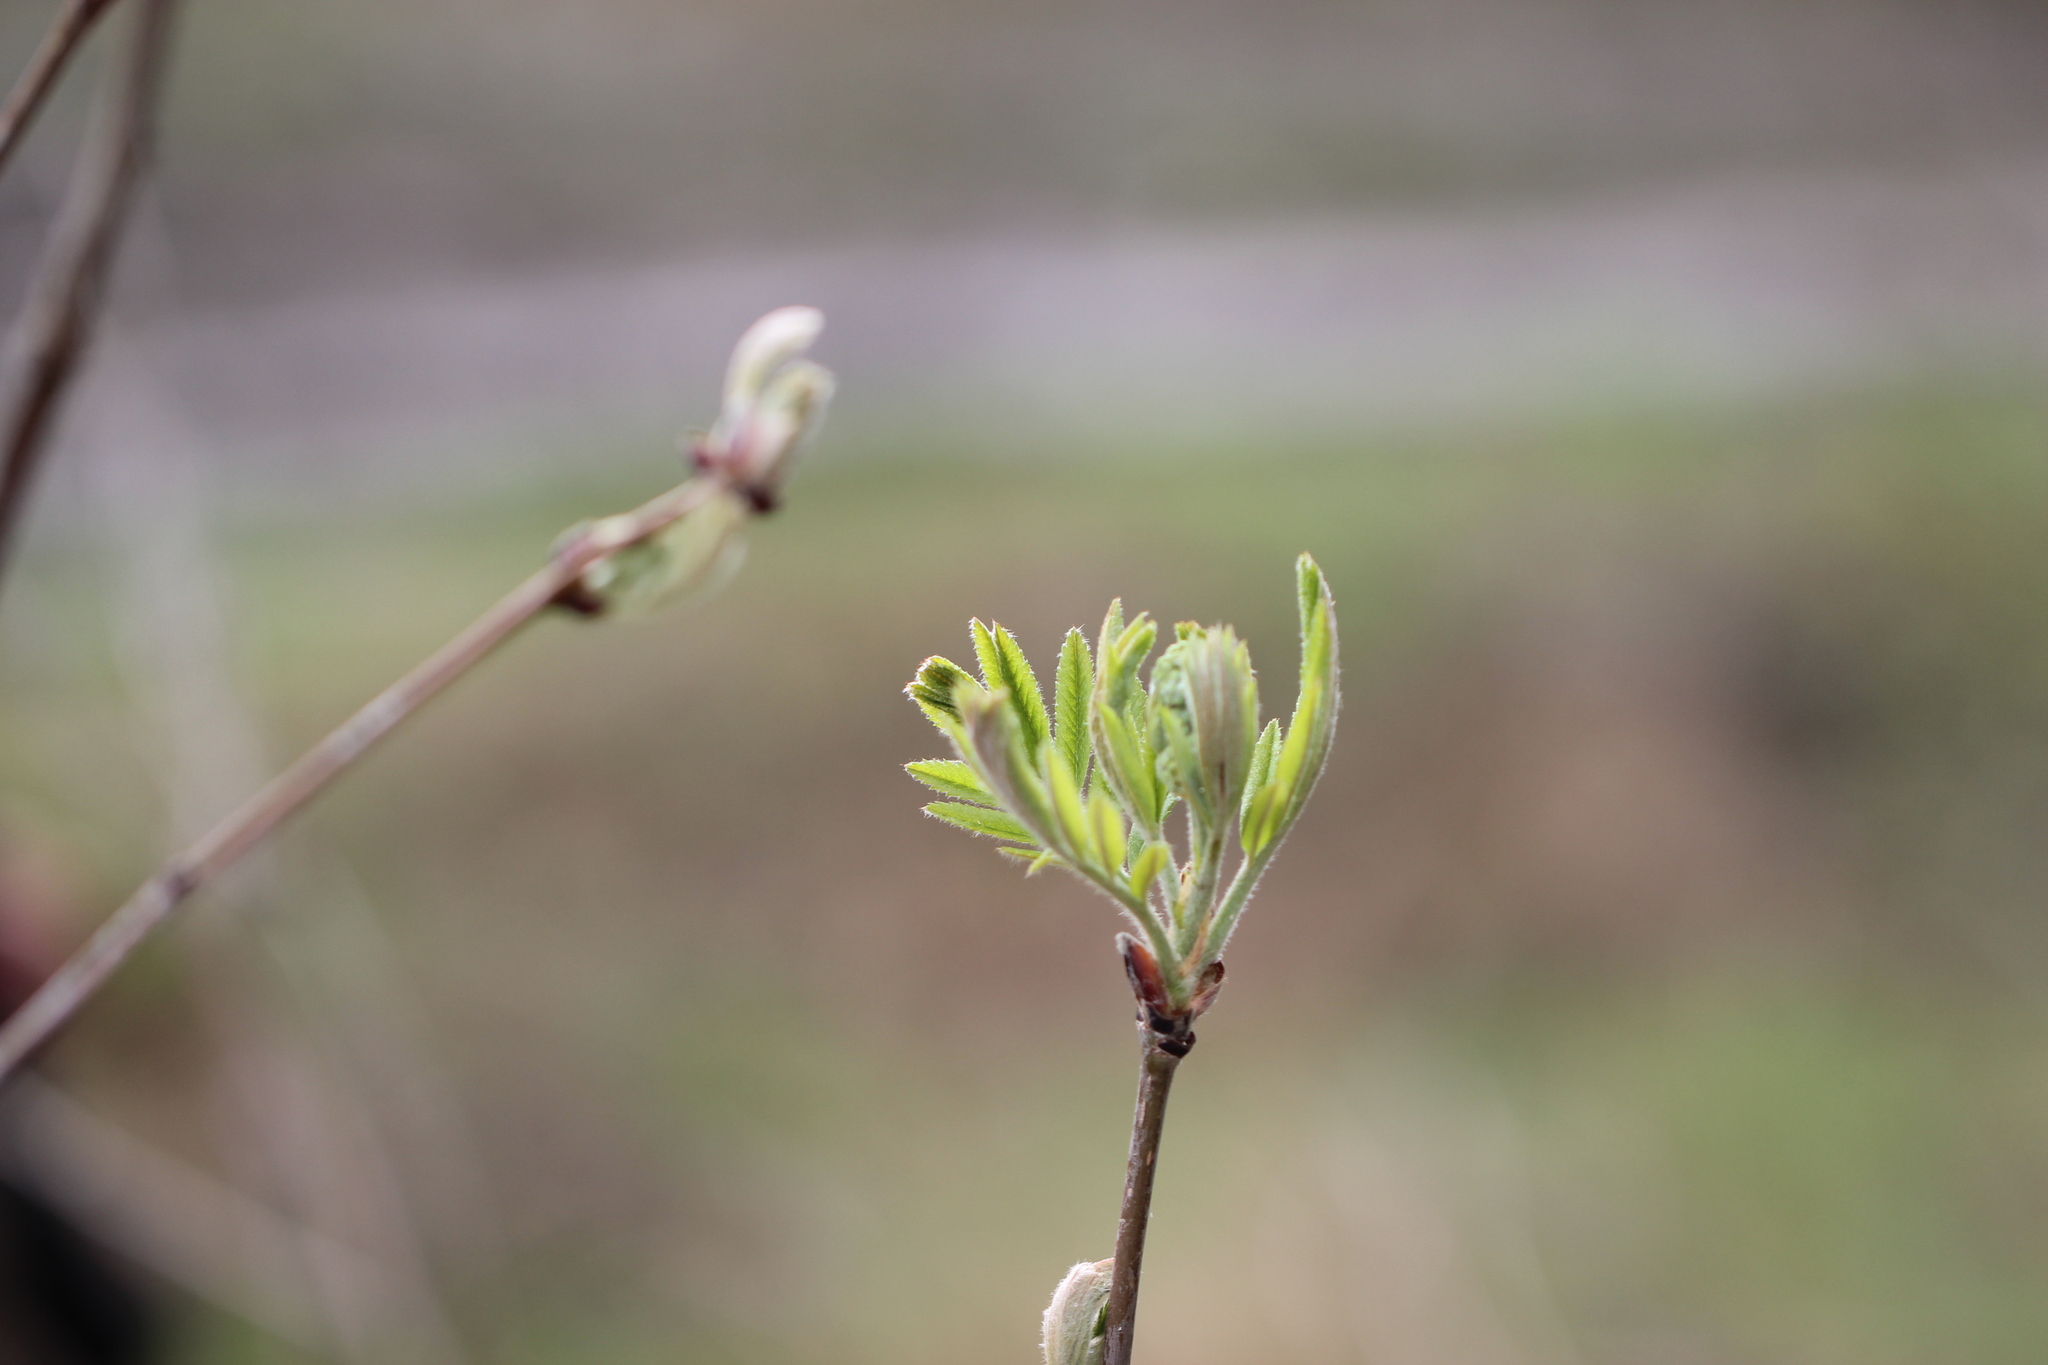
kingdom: Plantae
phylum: Tracheophyta
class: Magnoliopsida
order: Rosales
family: Rosaceae
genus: Sorbus
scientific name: Sorbus aucuparia
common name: Rowan
